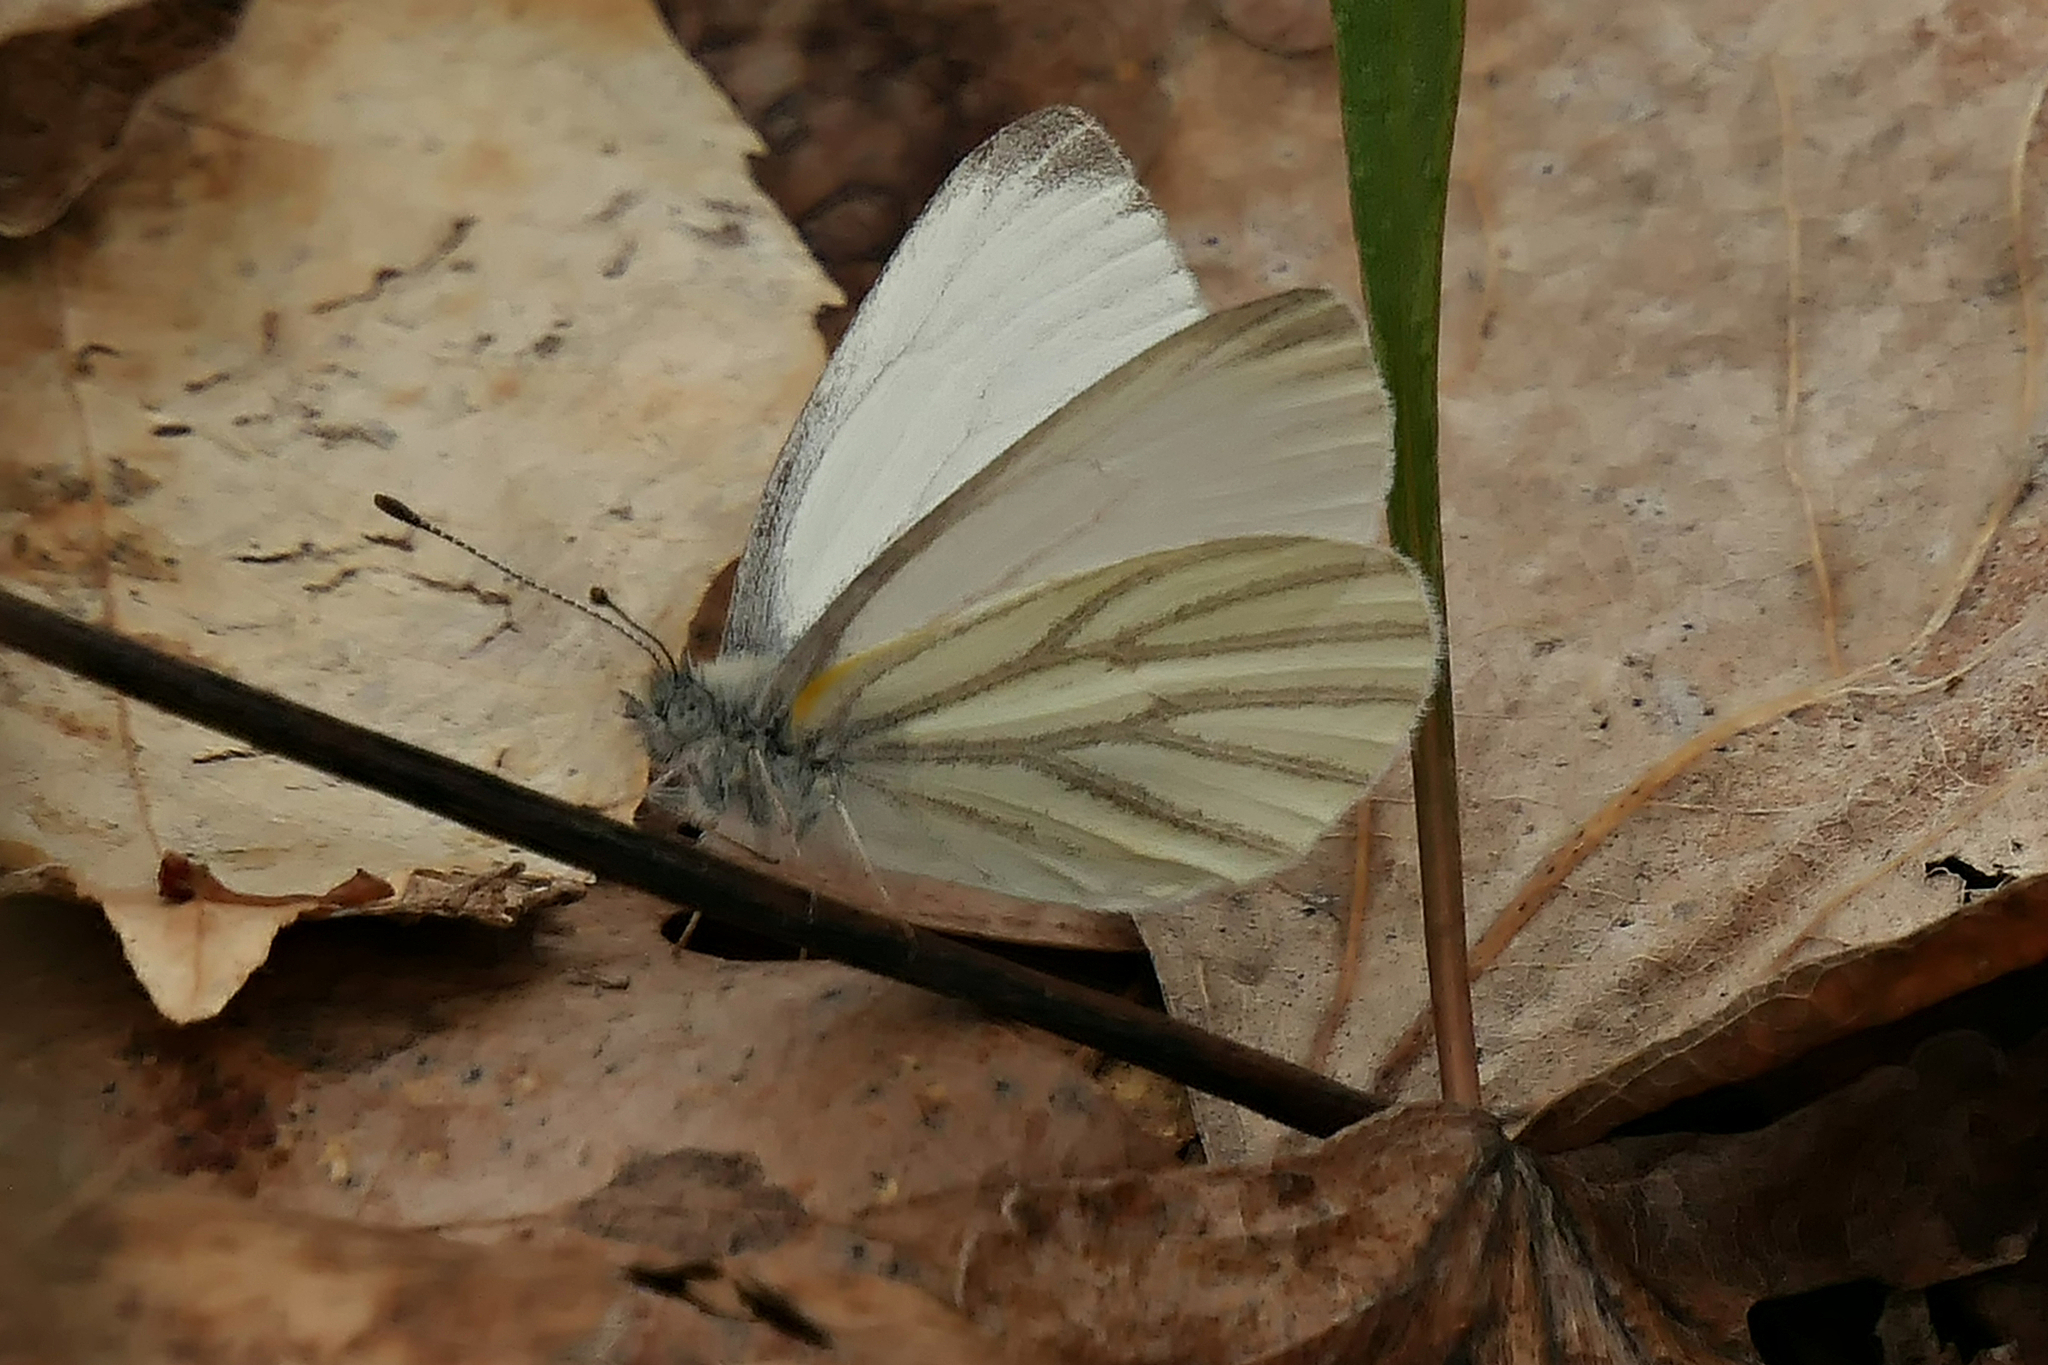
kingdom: Animalia
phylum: Arthropoda
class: Insecta
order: Lepidoptera
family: Pieridae
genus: Pieris
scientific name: Pieris oleracea
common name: Mustard white
